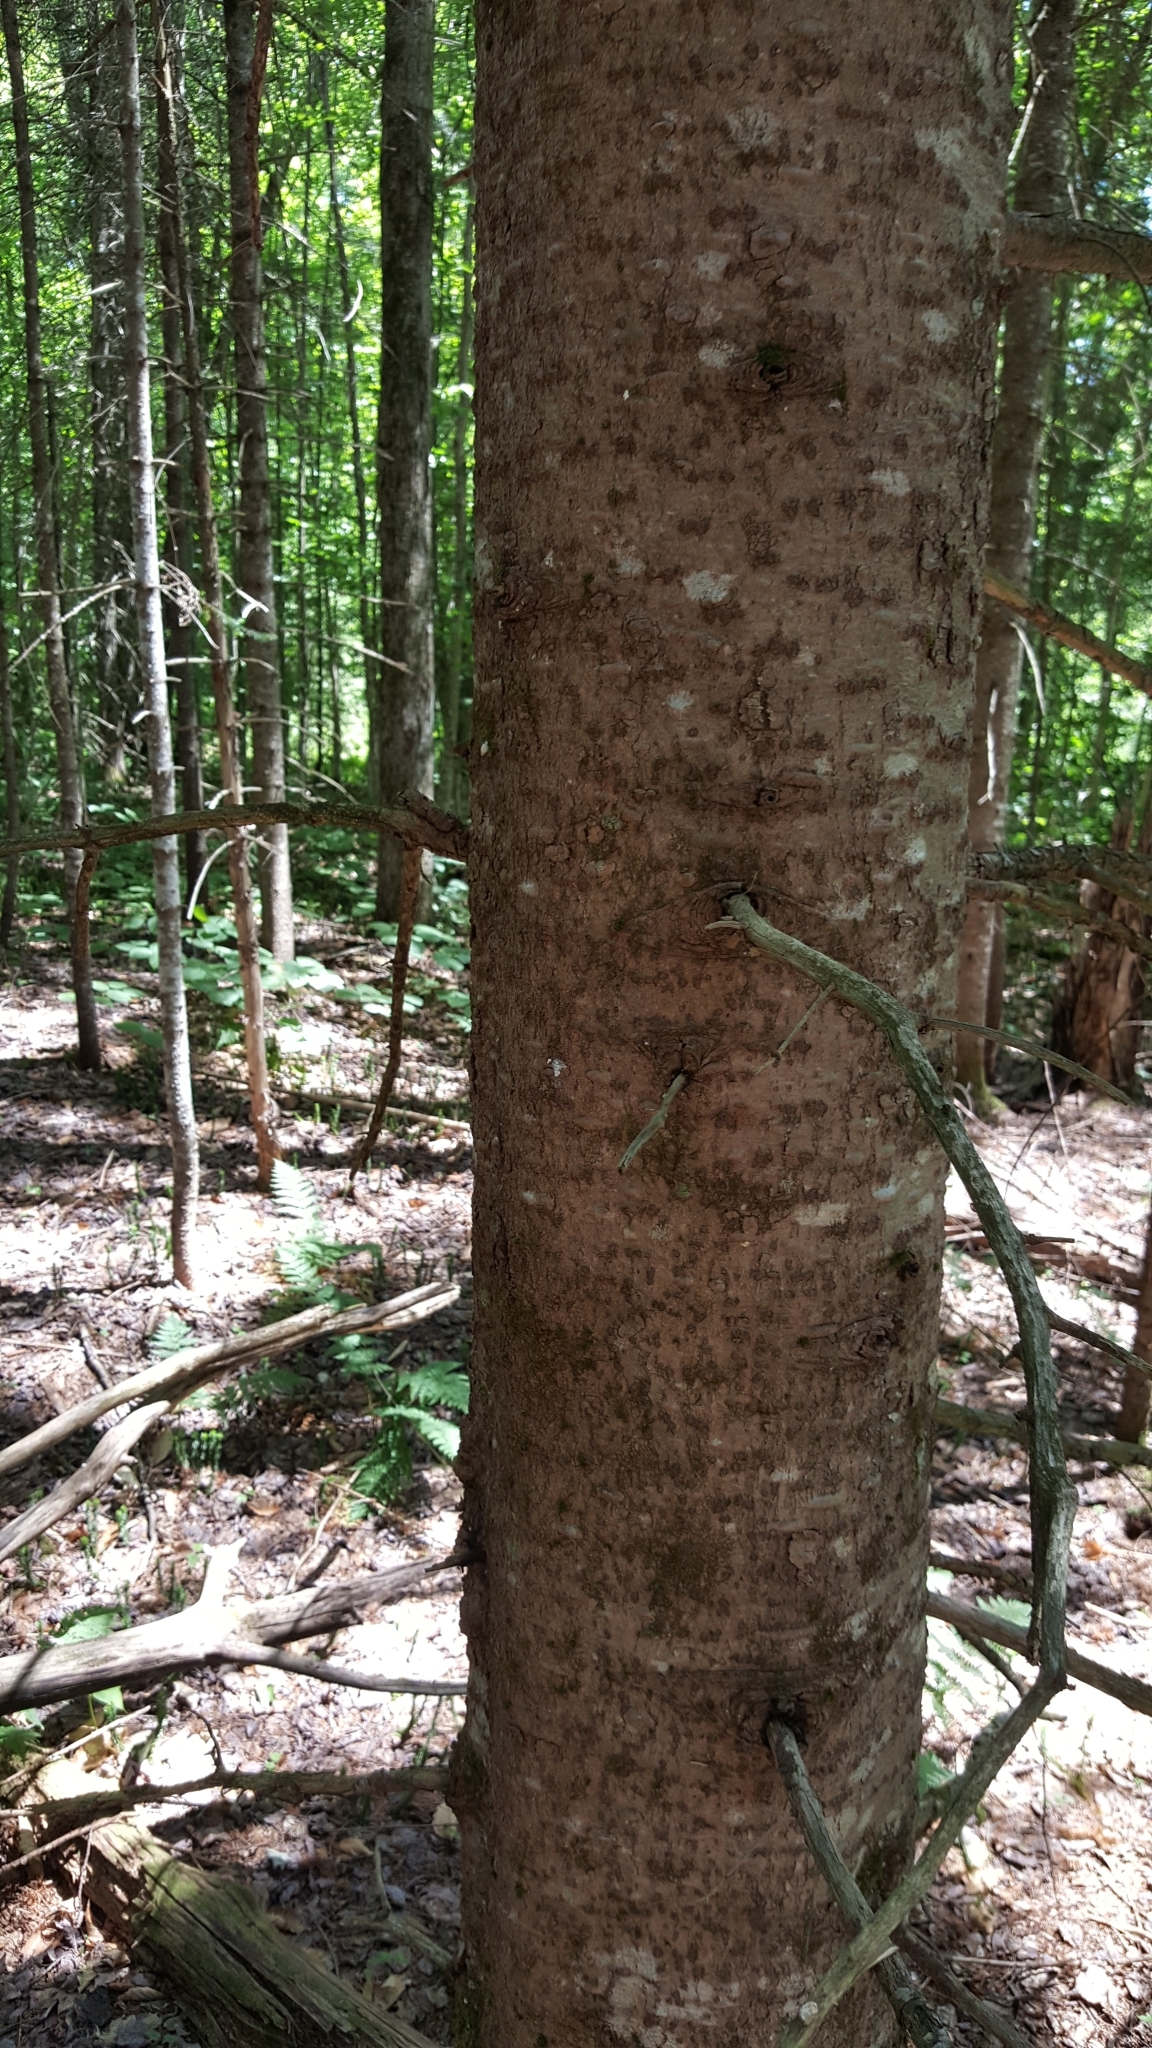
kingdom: Plantae
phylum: Tracheophyta
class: Pinopsida
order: Pinales
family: Pinaceae
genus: Abies
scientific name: Abies balsamea
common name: Balsam fir
